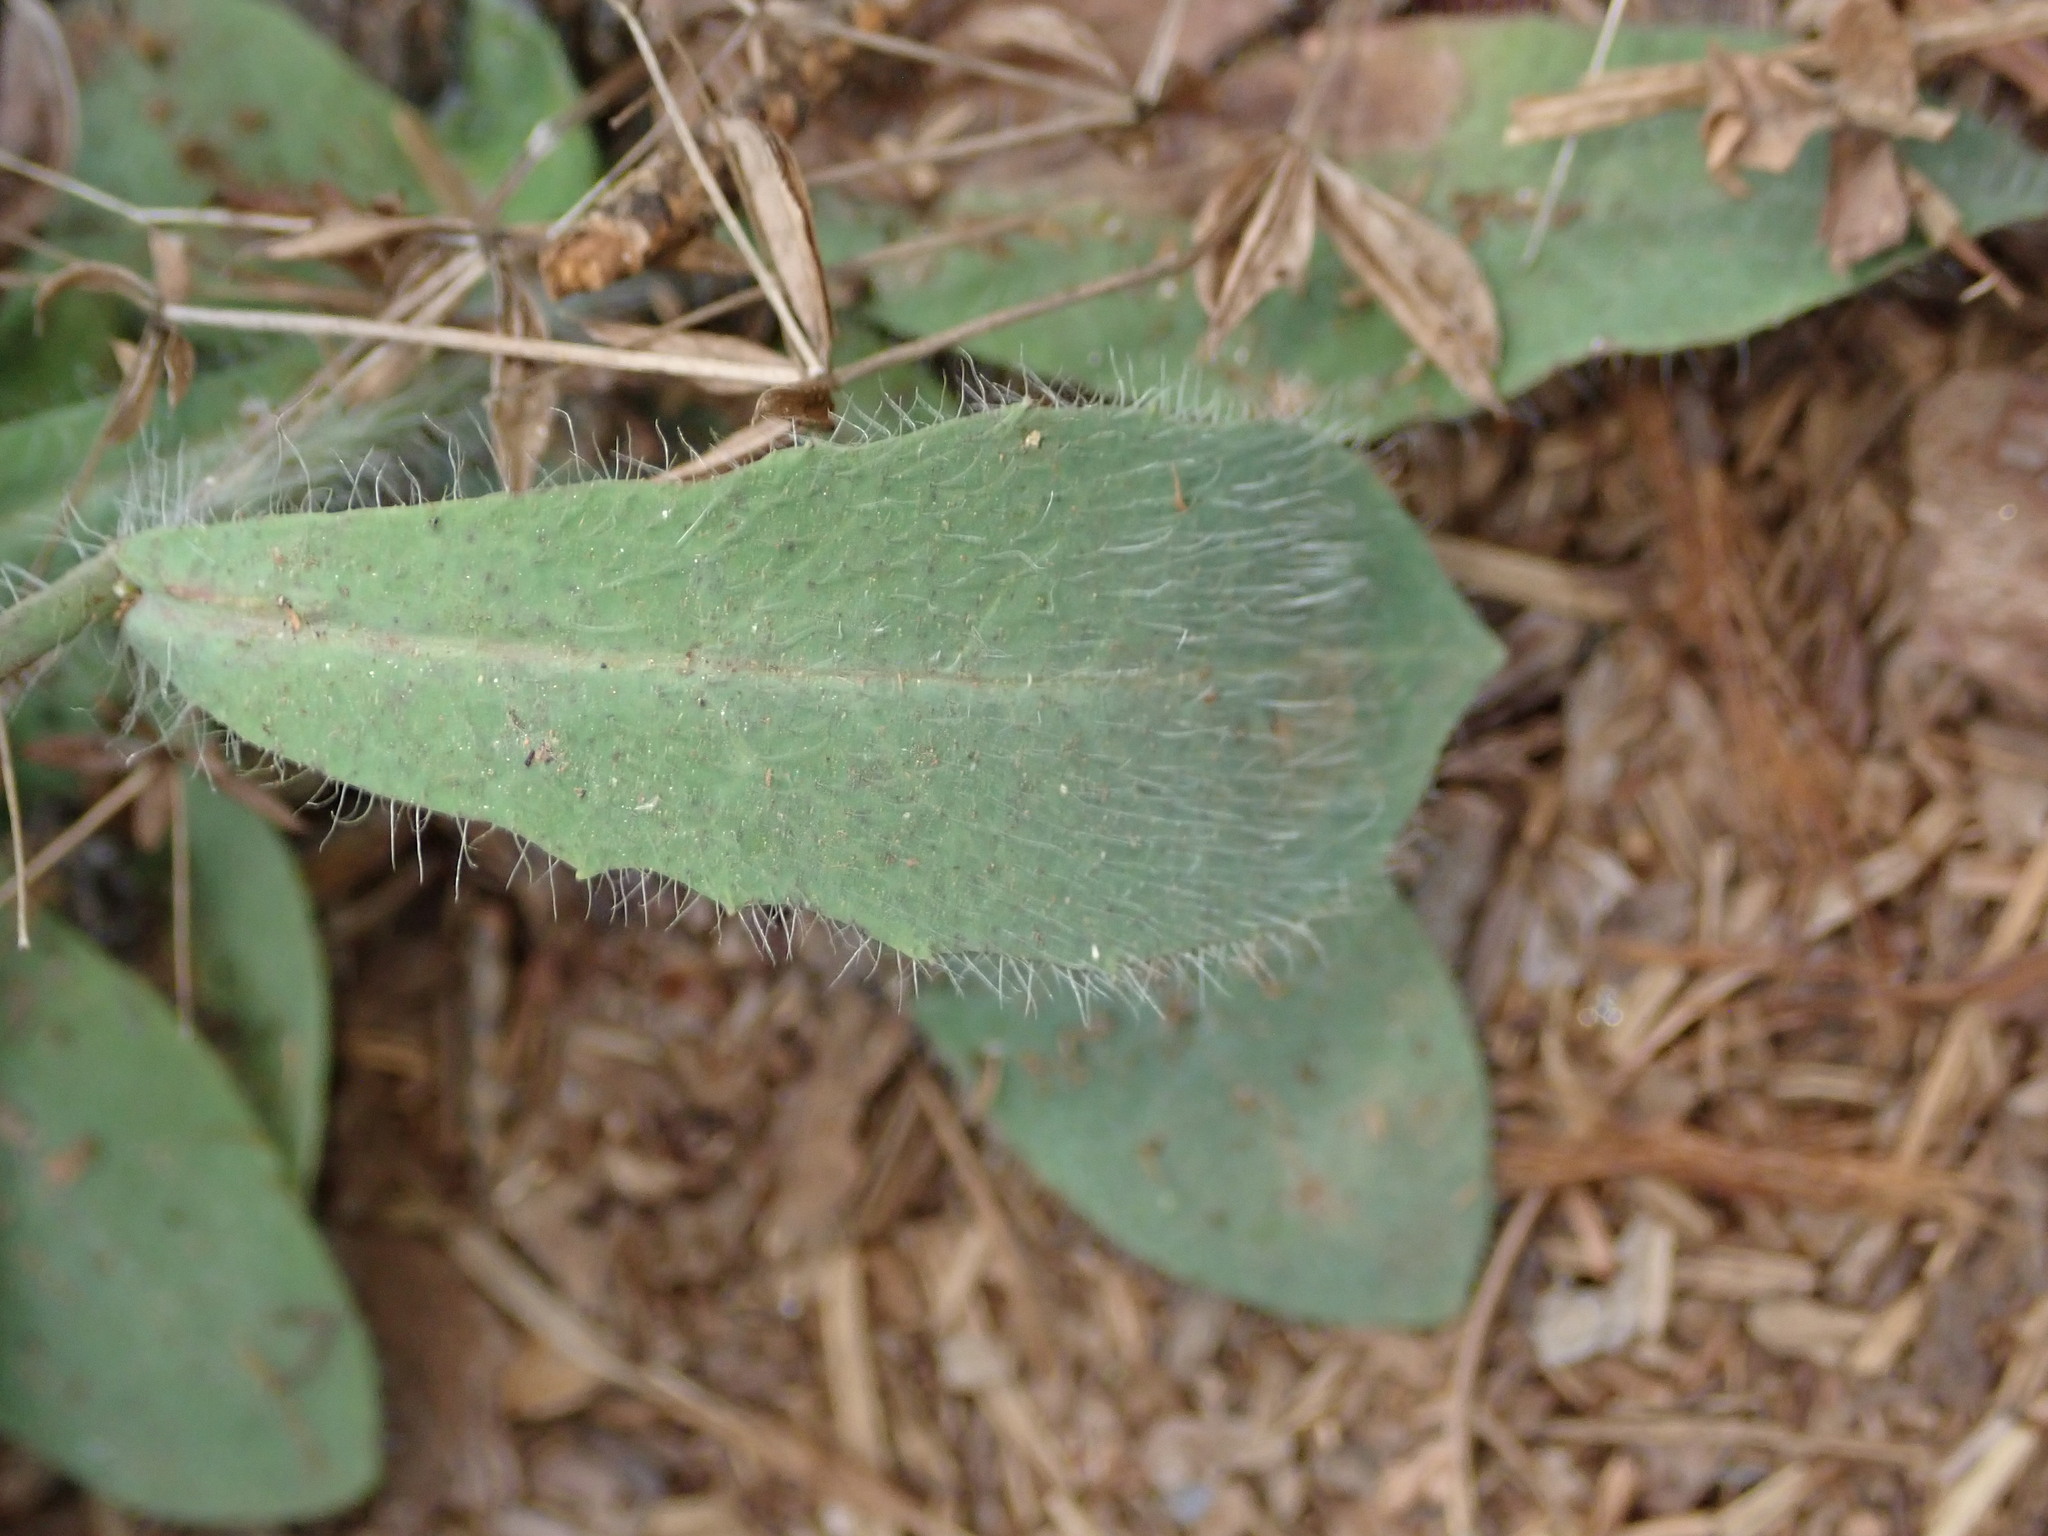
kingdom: Plantae
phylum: Tracheophyta
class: Magnoliopsida
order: Asterales
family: Asteraceae
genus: Hieracium
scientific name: Hieracium albiflorum
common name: White hawkweed
